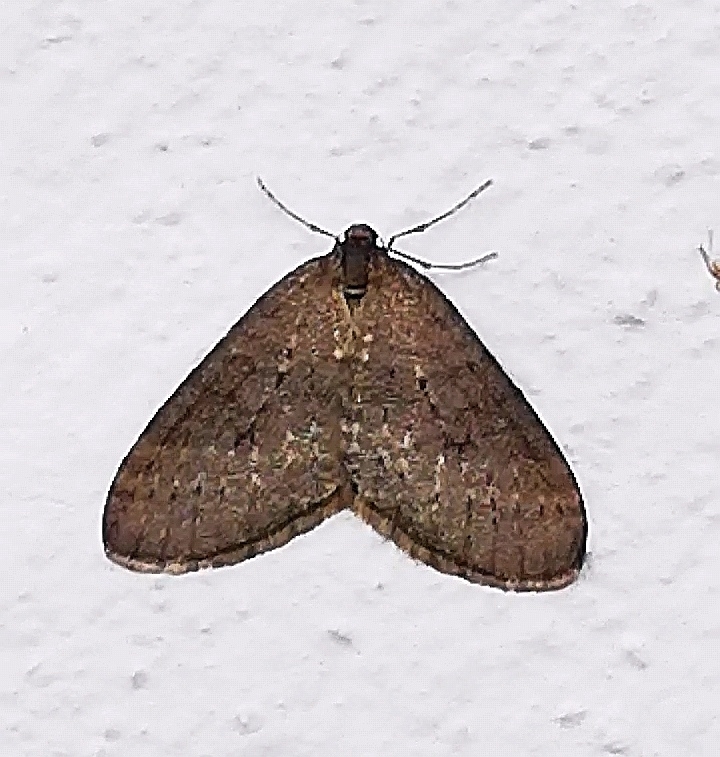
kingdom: Animalia
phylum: Arthropoda
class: Insecta
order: Lepidoptera
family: Geometridae
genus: Operophtera
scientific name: Operophtera brumata
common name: Winter moth
